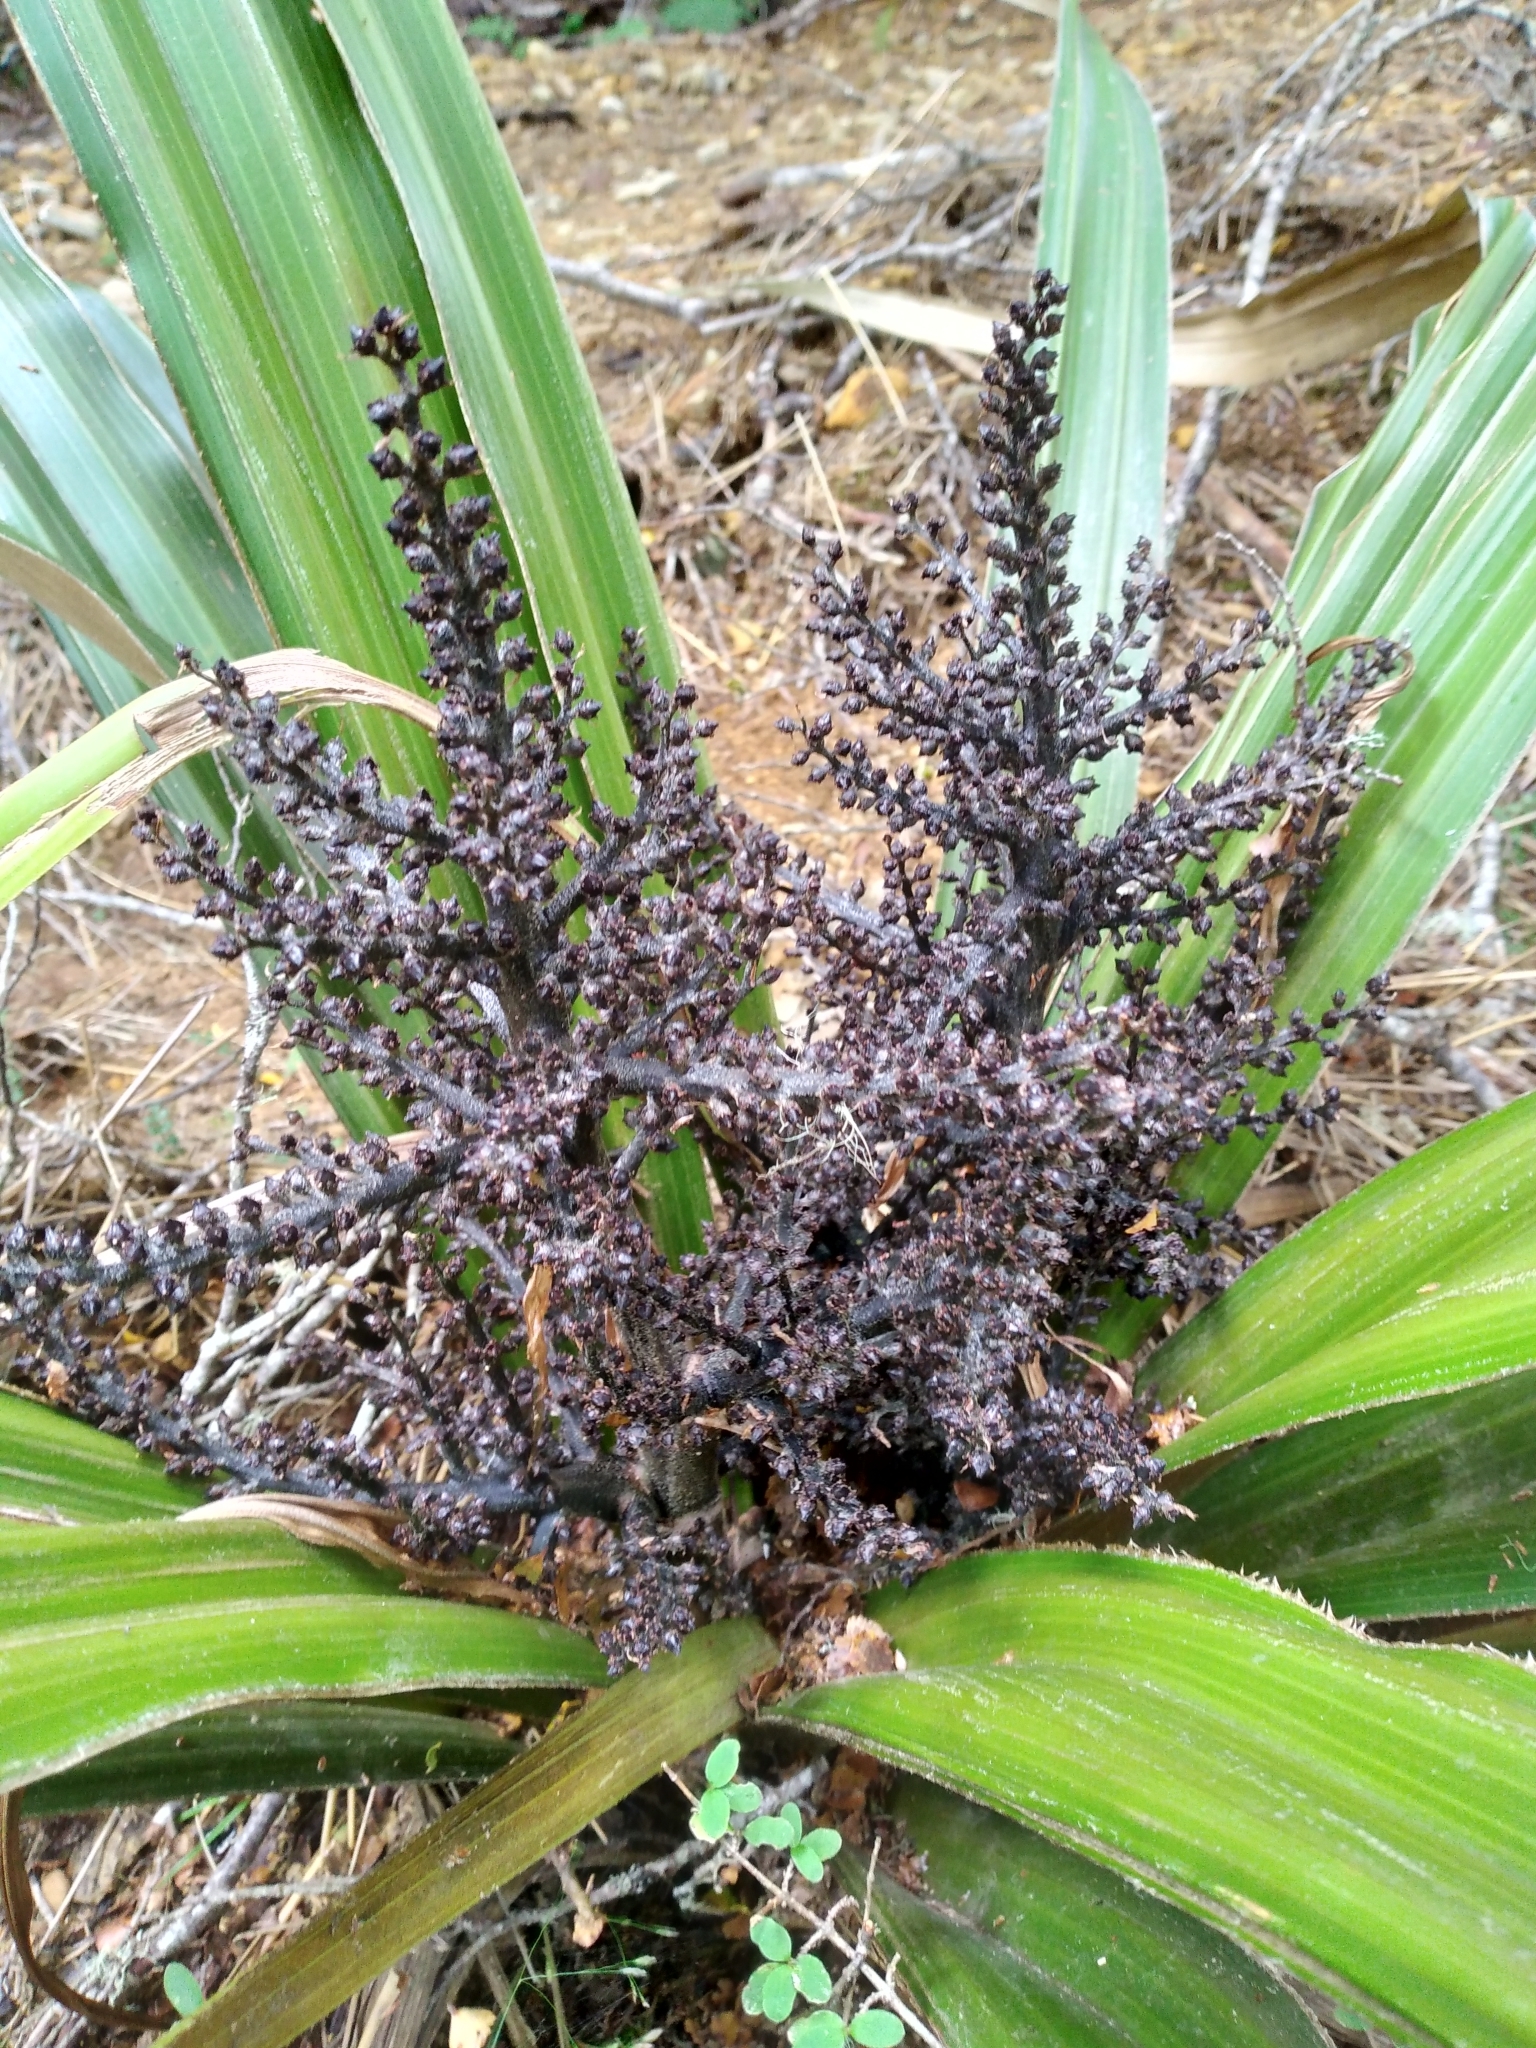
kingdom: Plantae
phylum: Tracheophyta
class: Liliopsida
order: Asparagales
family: Asteliaceae
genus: Astelia
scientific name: Astelia nivicola
